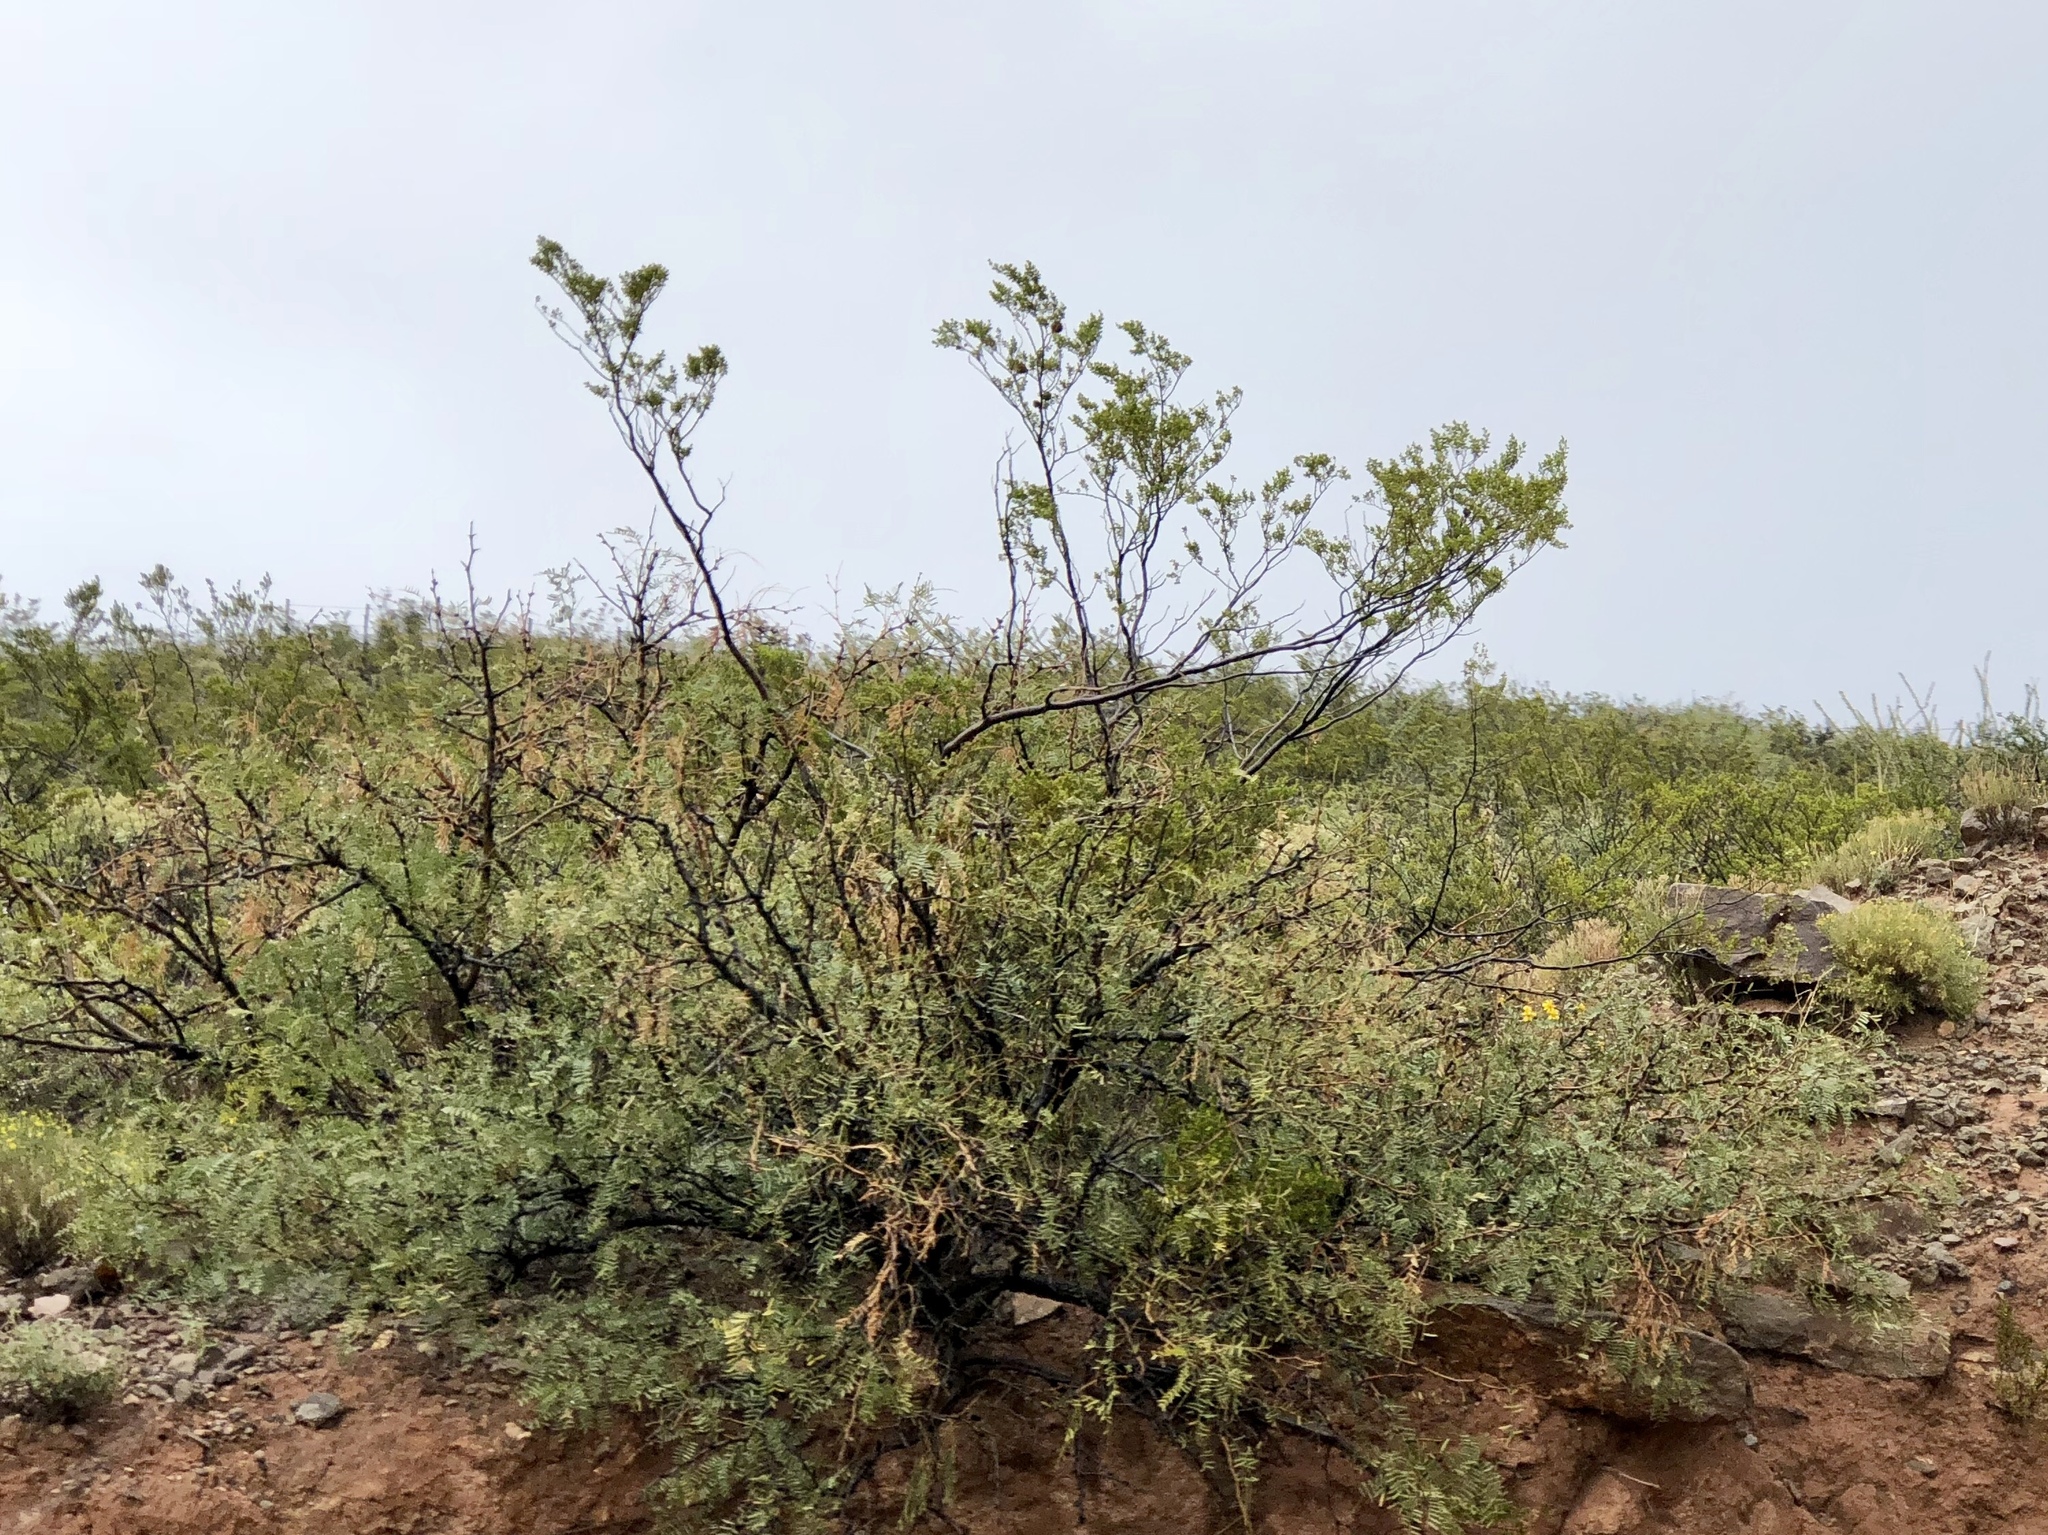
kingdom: Plantae
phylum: Tracheophyta
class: Magnoliopsida
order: Zygophyllales
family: Zygophyllaceae
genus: Larrea
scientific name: Larrea tridentata
